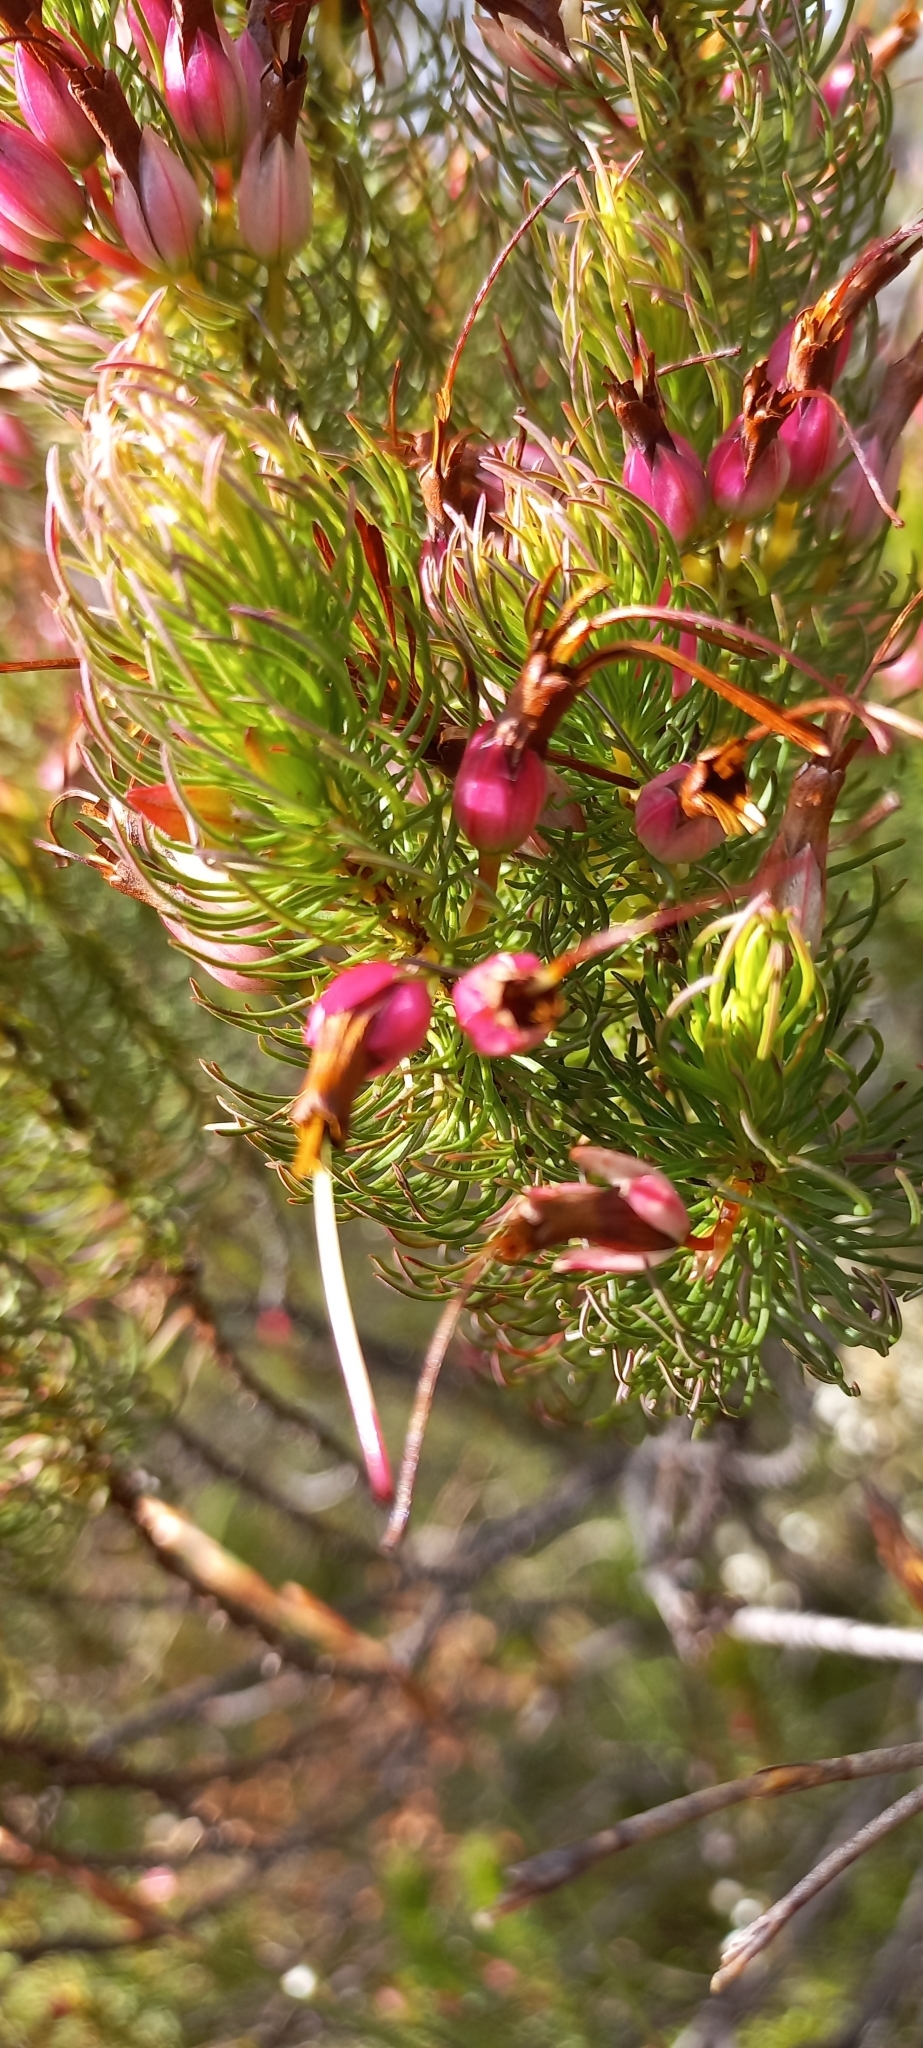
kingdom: Plantae
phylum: Tracheophyta
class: Magnoliopsida
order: Ericales
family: Ericaceae
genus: Erica
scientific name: Erica plukenetii
